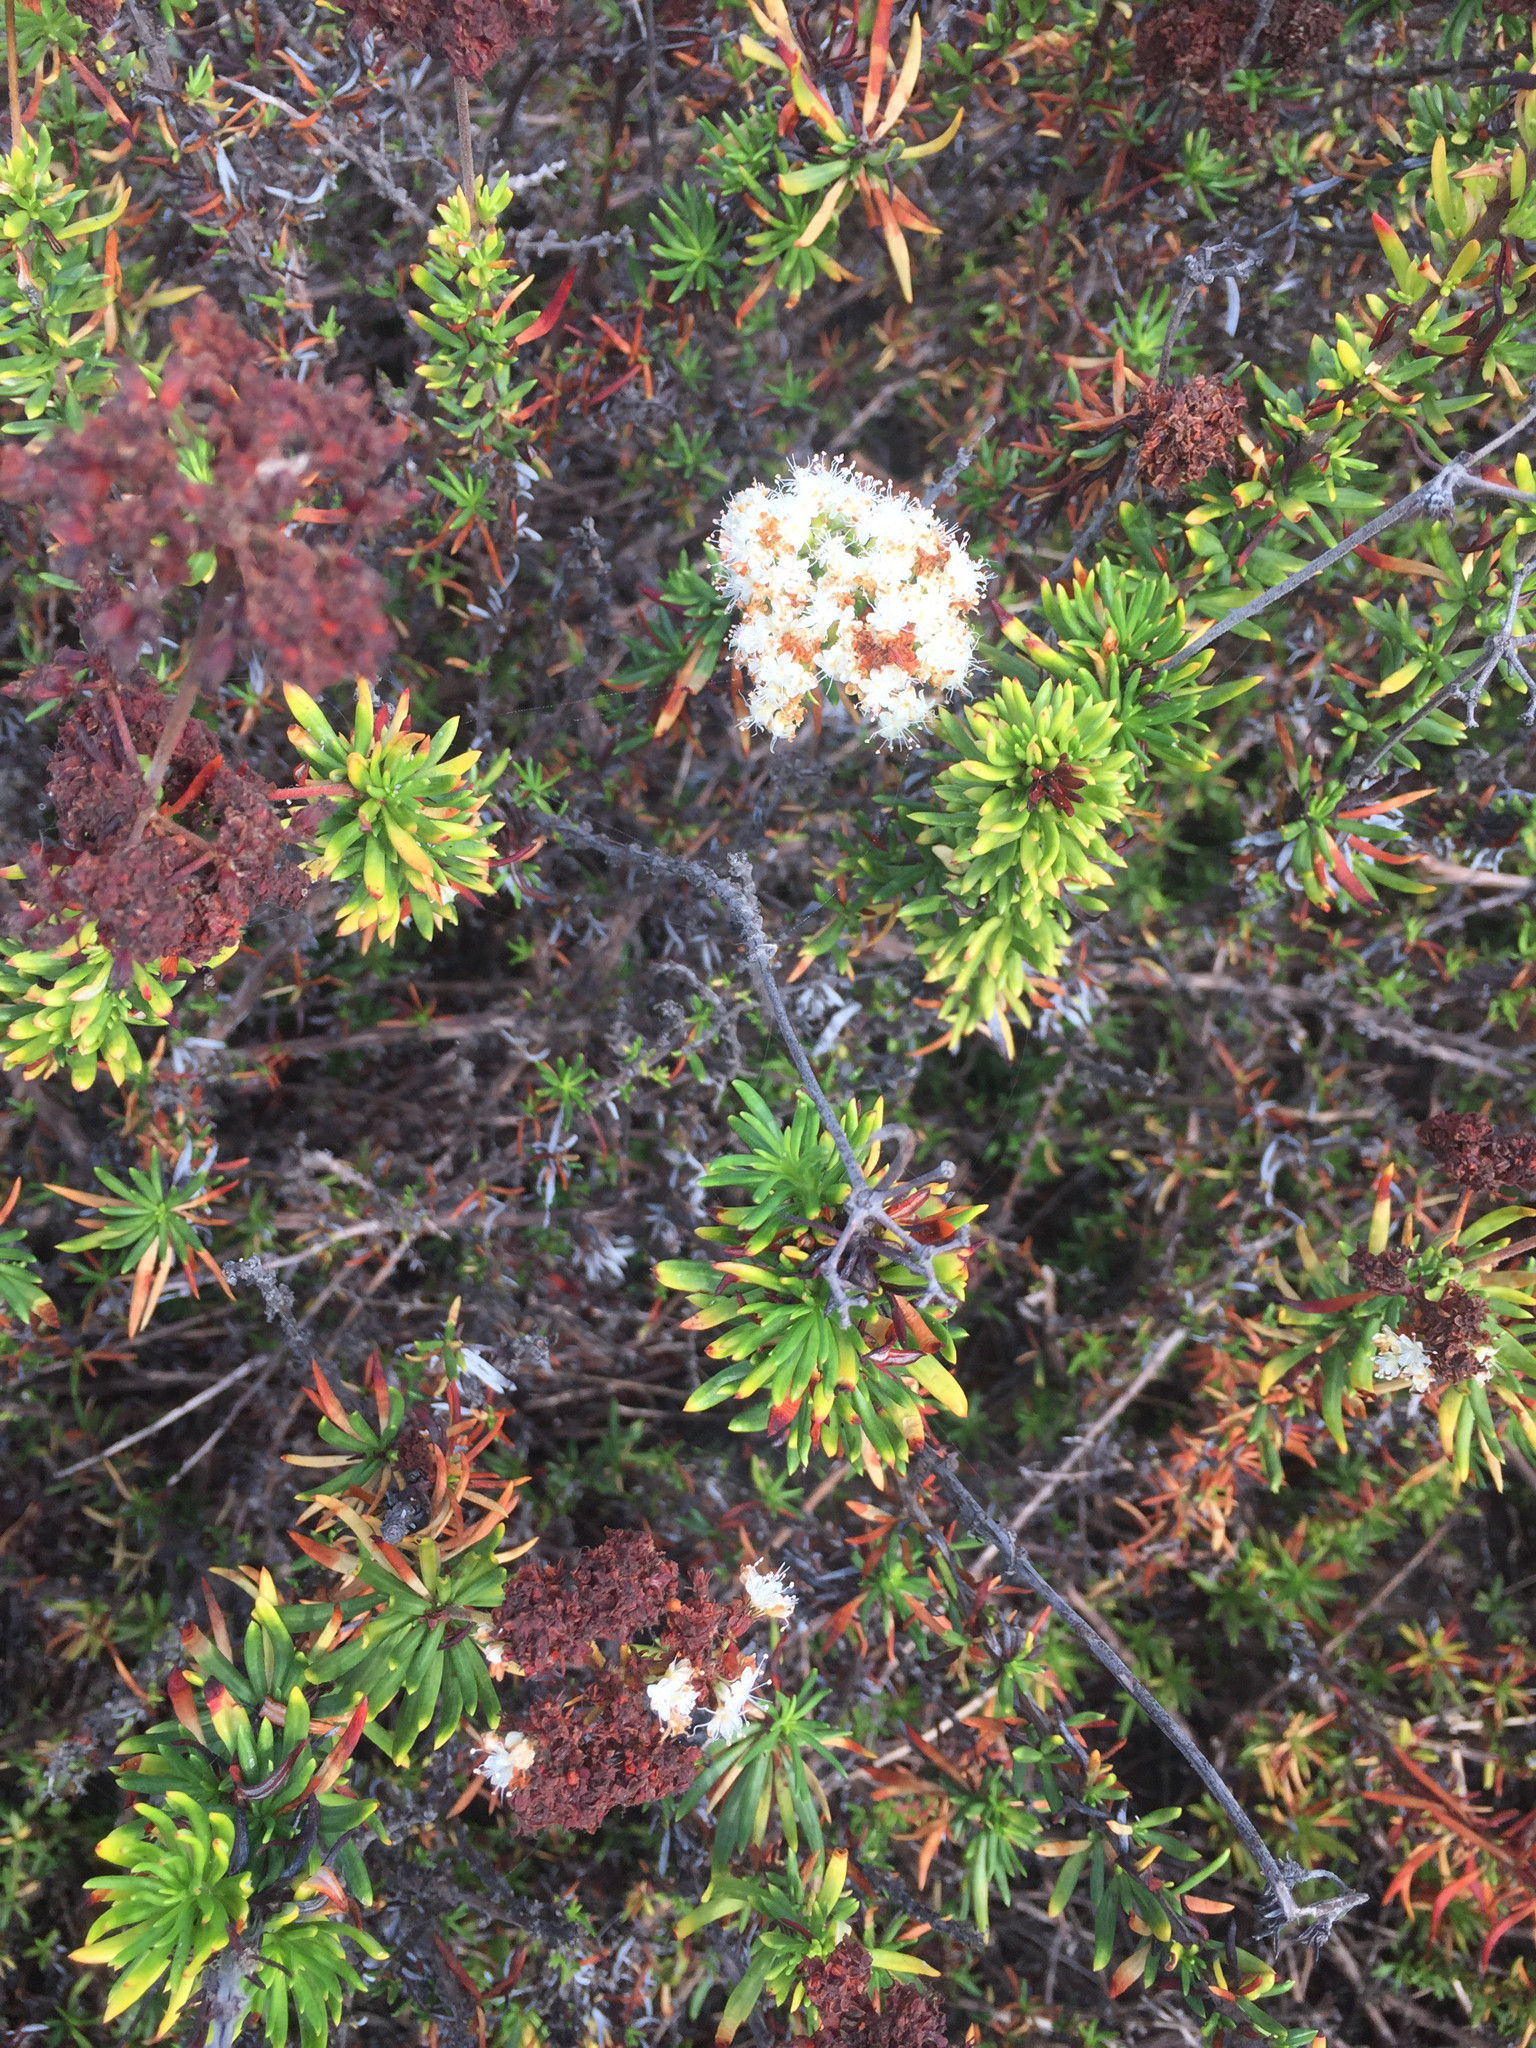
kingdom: Plantae
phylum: Tracheophyta
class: Magnoliopsida
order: Caryophyllales
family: Polygonaceae
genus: Eriogonum
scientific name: Eriogonum fasciculatum
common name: California wild buckwheat
